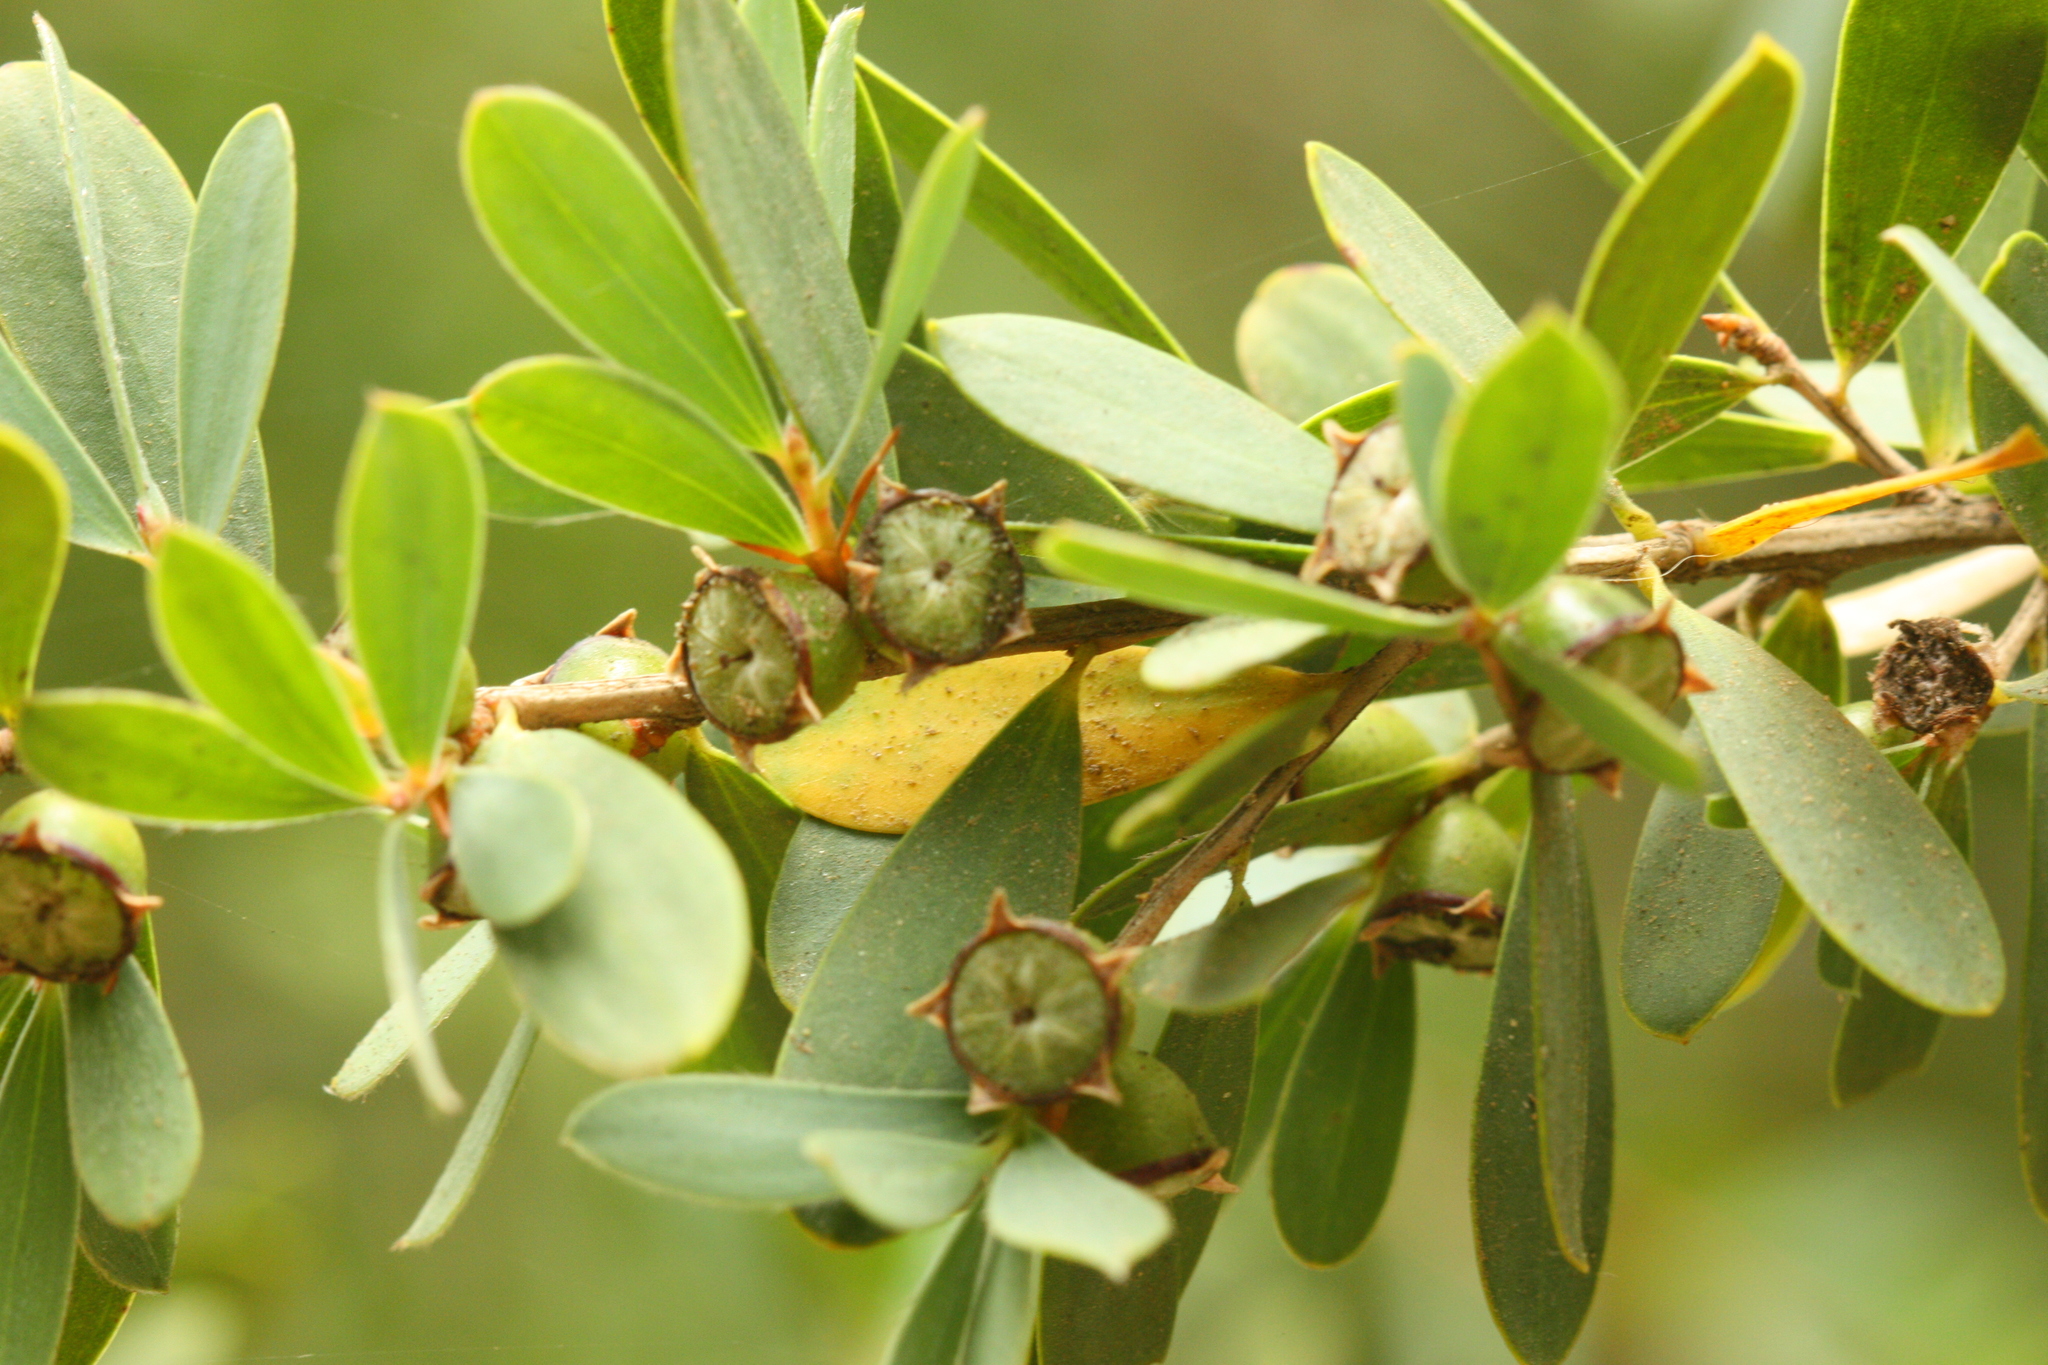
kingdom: Plantae
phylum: Tracheophyta
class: Magnoliopsida
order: Myrtales
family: Myrtaceae
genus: Leptospermum
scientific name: Leptospermum laevigatum
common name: Australian teatree
